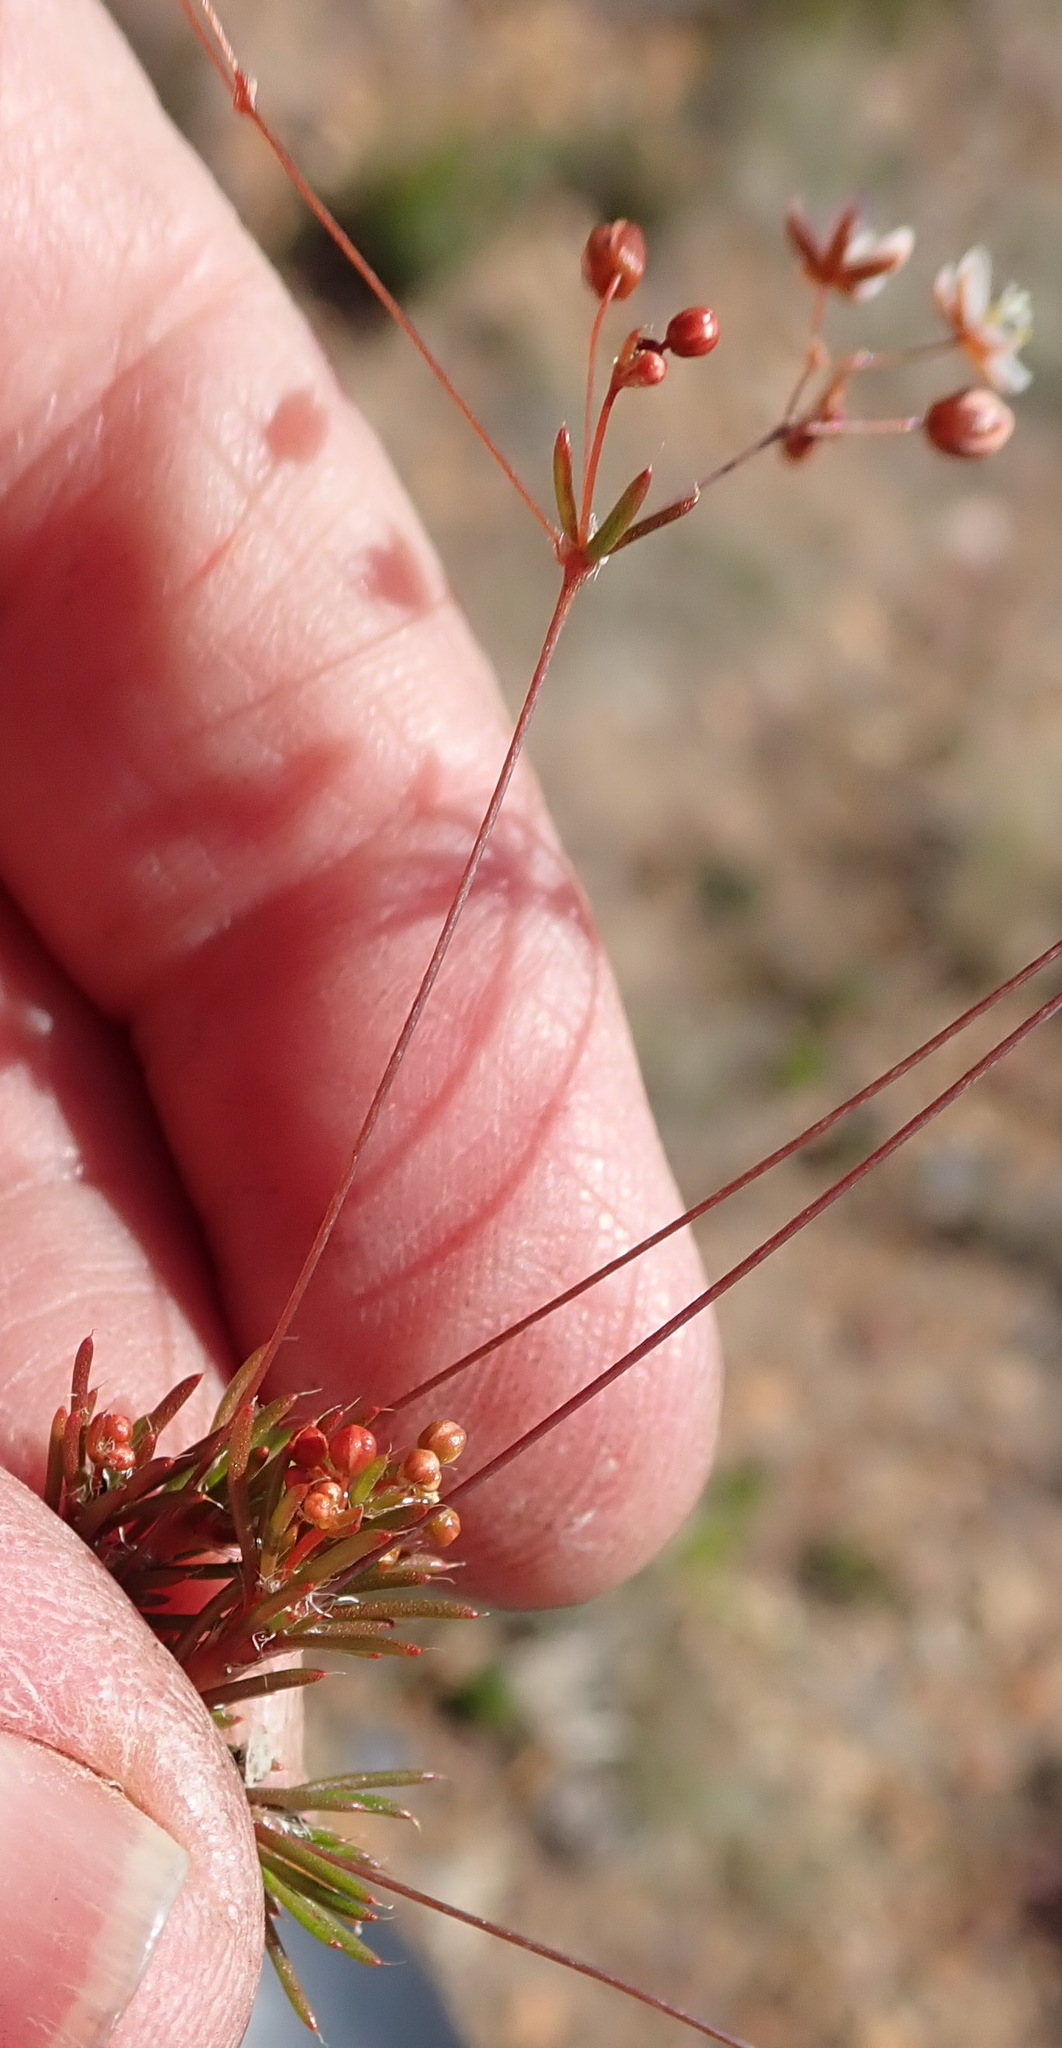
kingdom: Plantae
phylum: Tracheophyta
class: Magnoliopsida
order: Caryophyllales
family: Molluginaceae
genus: Pharnaceum
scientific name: Pharnaceum ciliare
